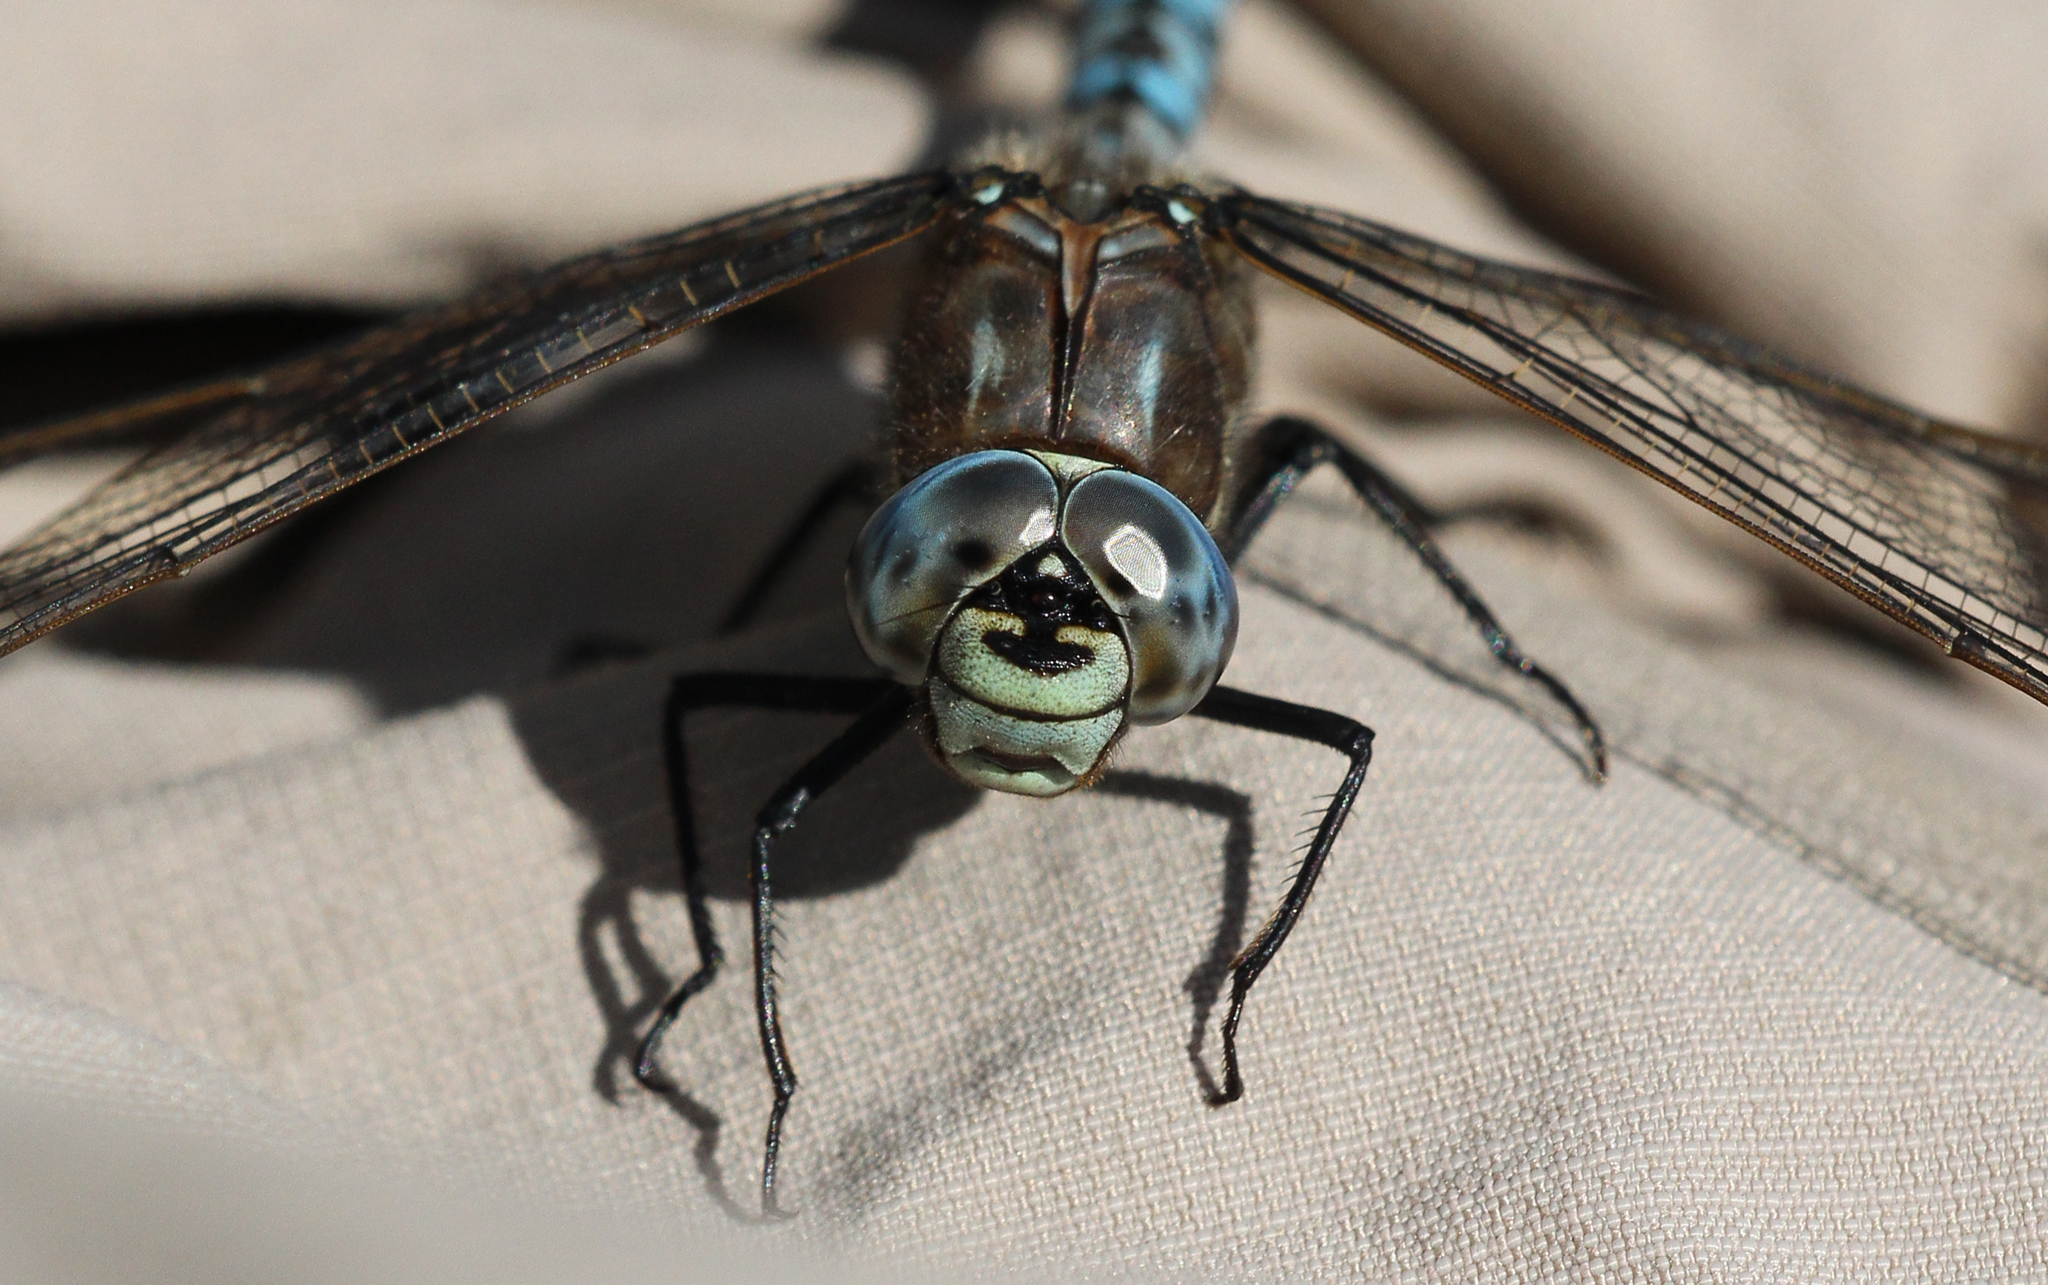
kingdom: Animalia
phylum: Arthropoda
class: Insecta
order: Odonata
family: Aeshnidae
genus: Aeshna
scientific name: Aeshna caerulea
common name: Azure hawker
